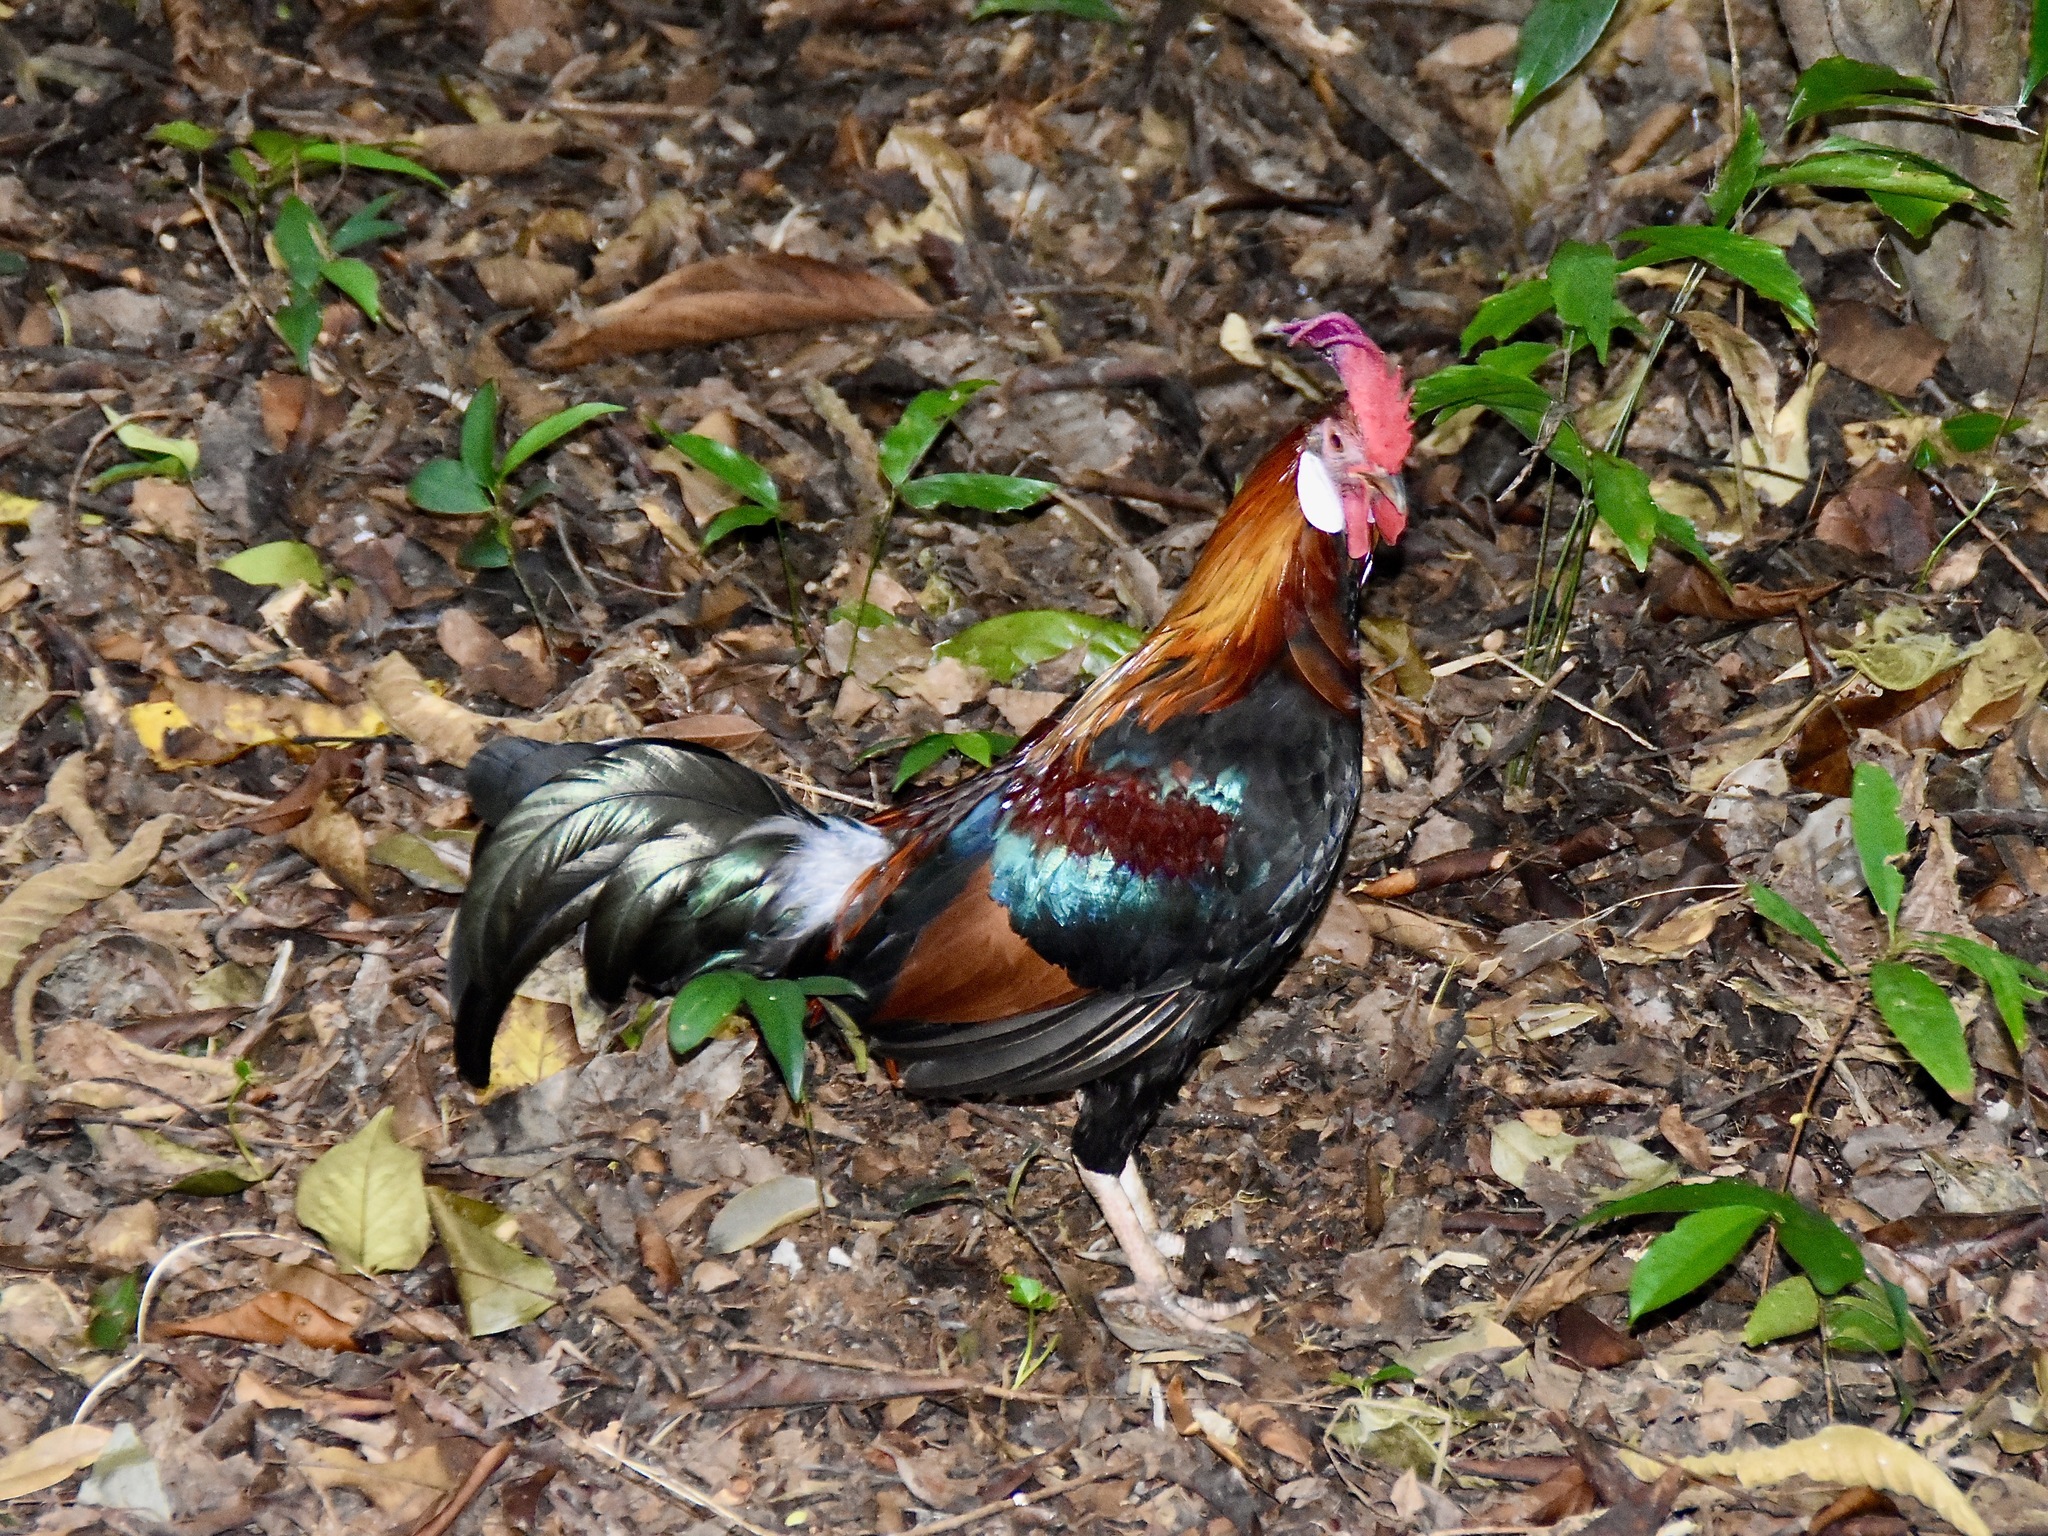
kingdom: Animalia
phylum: Chordata
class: Aves
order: Galliformes
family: Phasianidae
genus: Gallus
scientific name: Gallus gallus
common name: Red junglefowl
